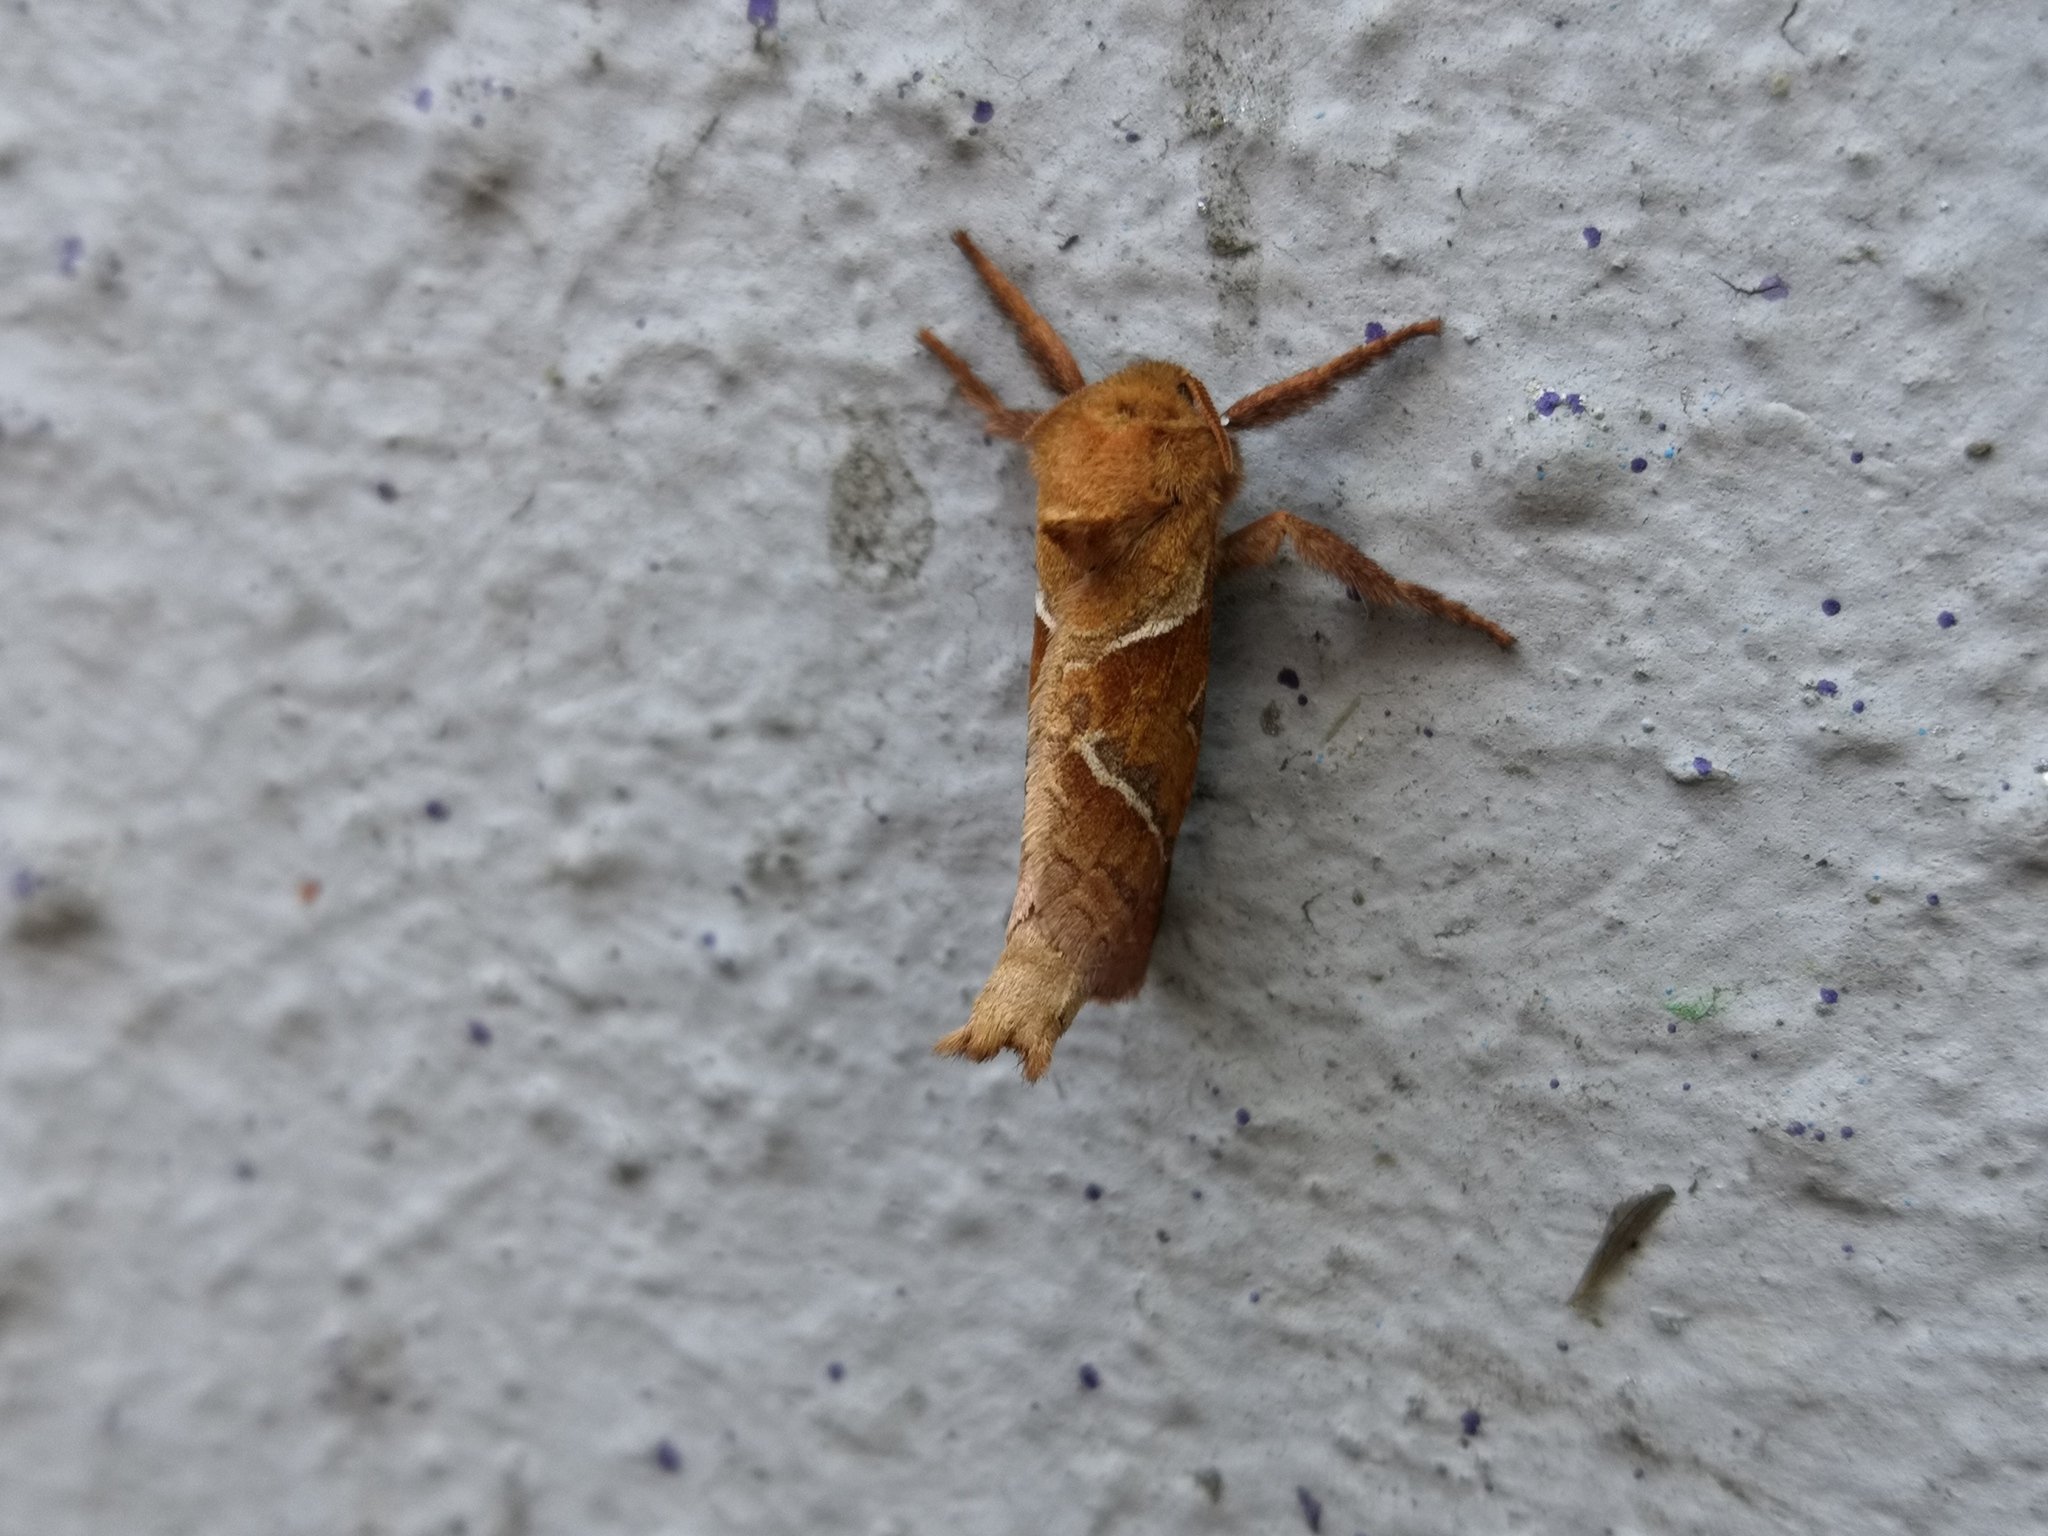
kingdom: Animalia
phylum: Arthropoda
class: Insecta
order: Lepidoptera
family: Hepialidae
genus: Triodia
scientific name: Triodia sylvina
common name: Orange swift
